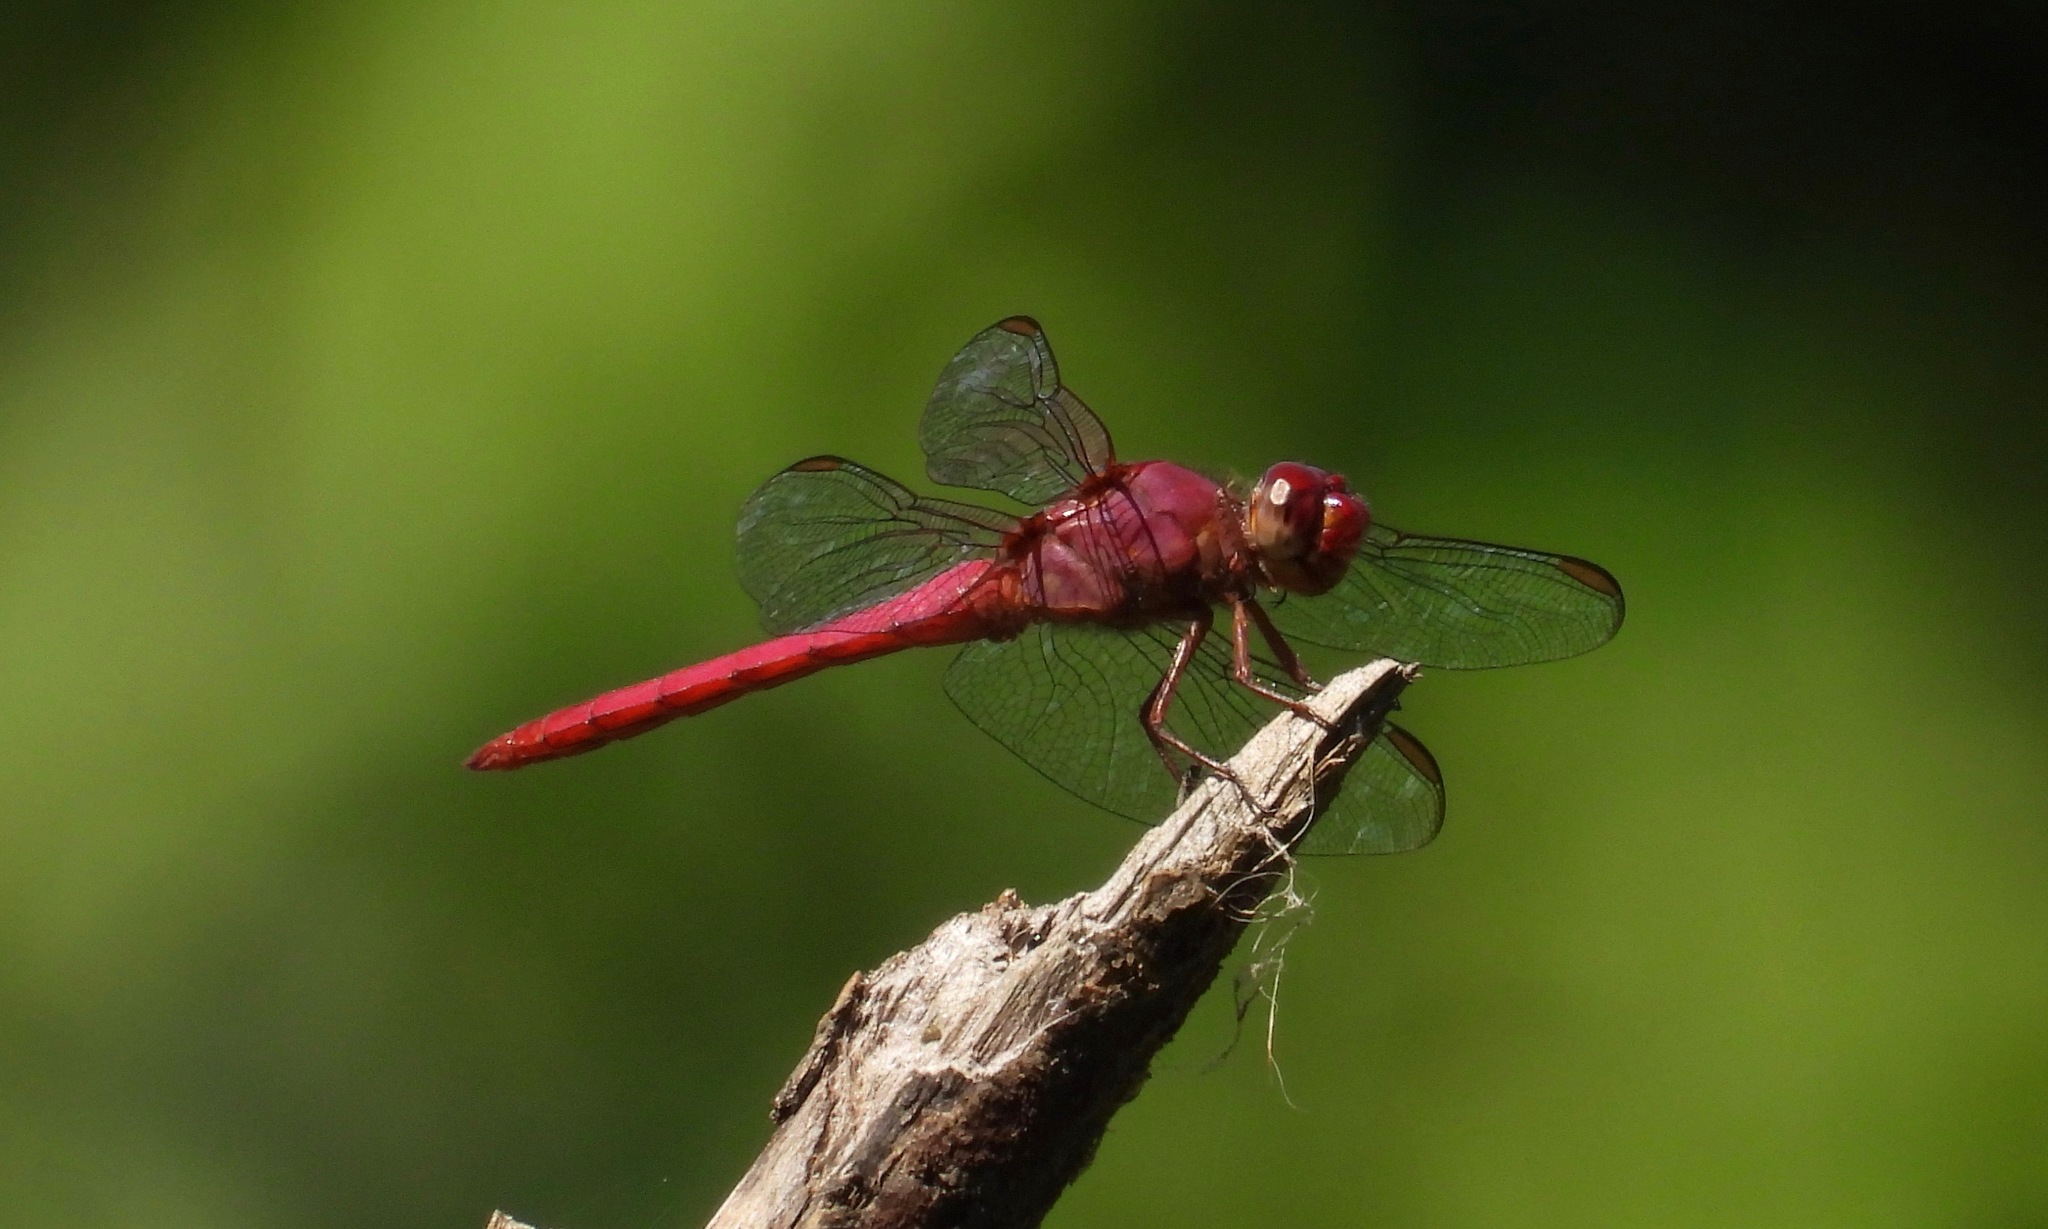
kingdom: Animalia
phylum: Arthropoda
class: Insecta
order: Odonata
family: Libellulidae
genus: Orthemis
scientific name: Orthemis discolor
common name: Carmine skimmer
